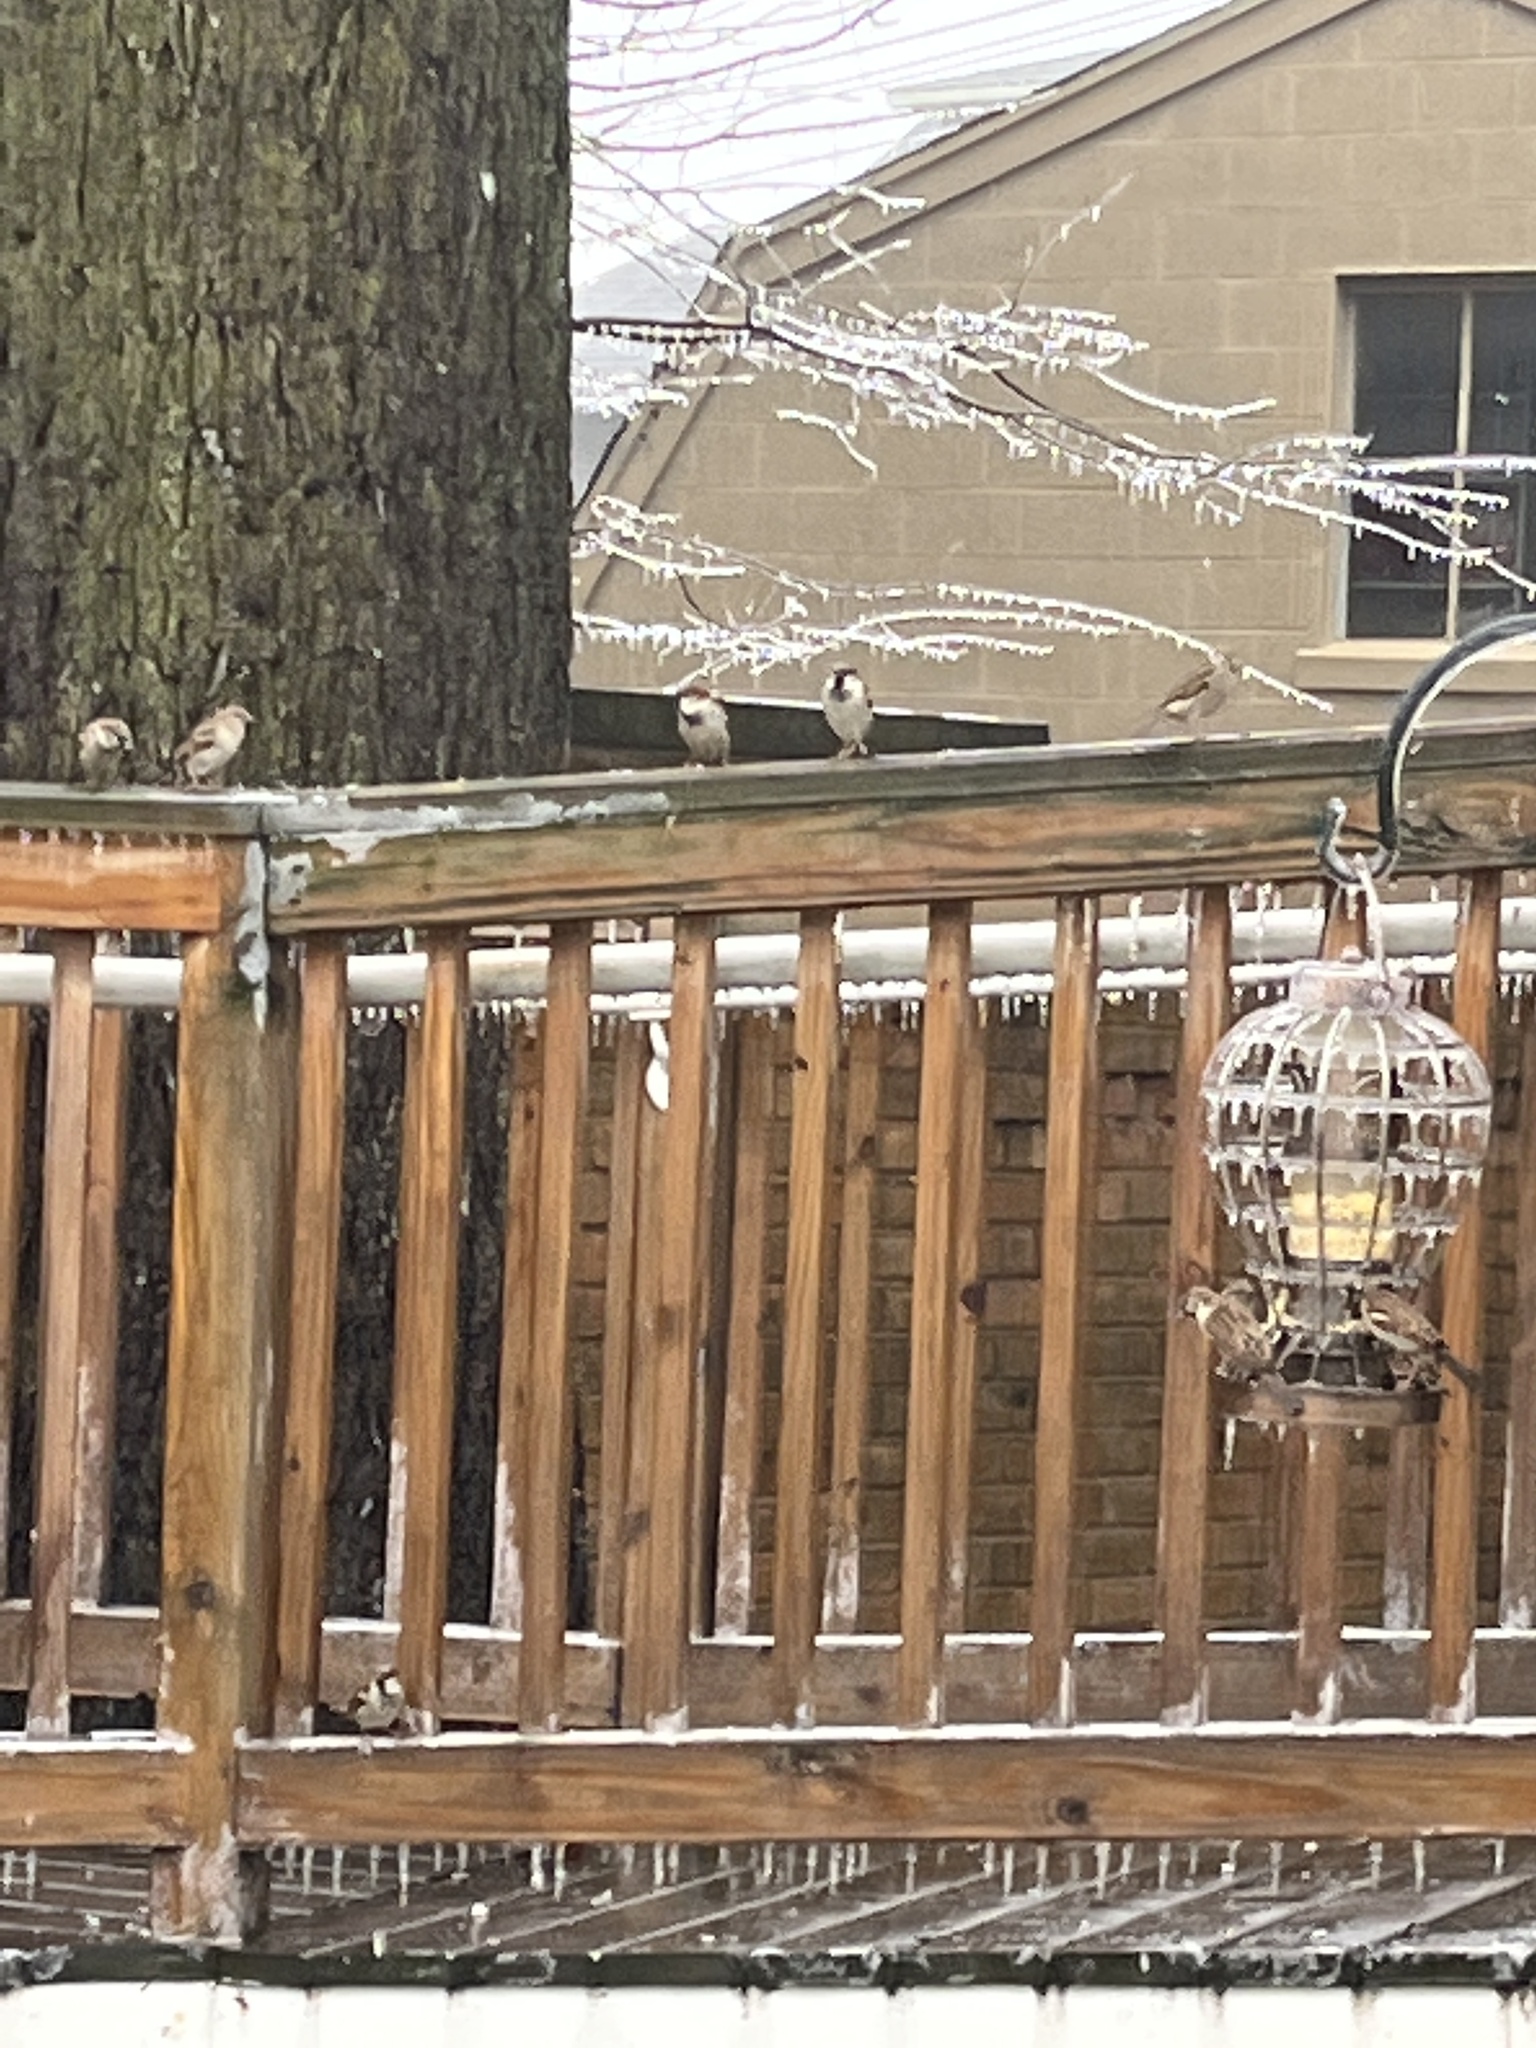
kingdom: Animalia
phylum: Chordata
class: Aves
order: Passeriformes
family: Passeridae
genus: Passer
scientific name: Passer domesticus
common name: House sparrow
